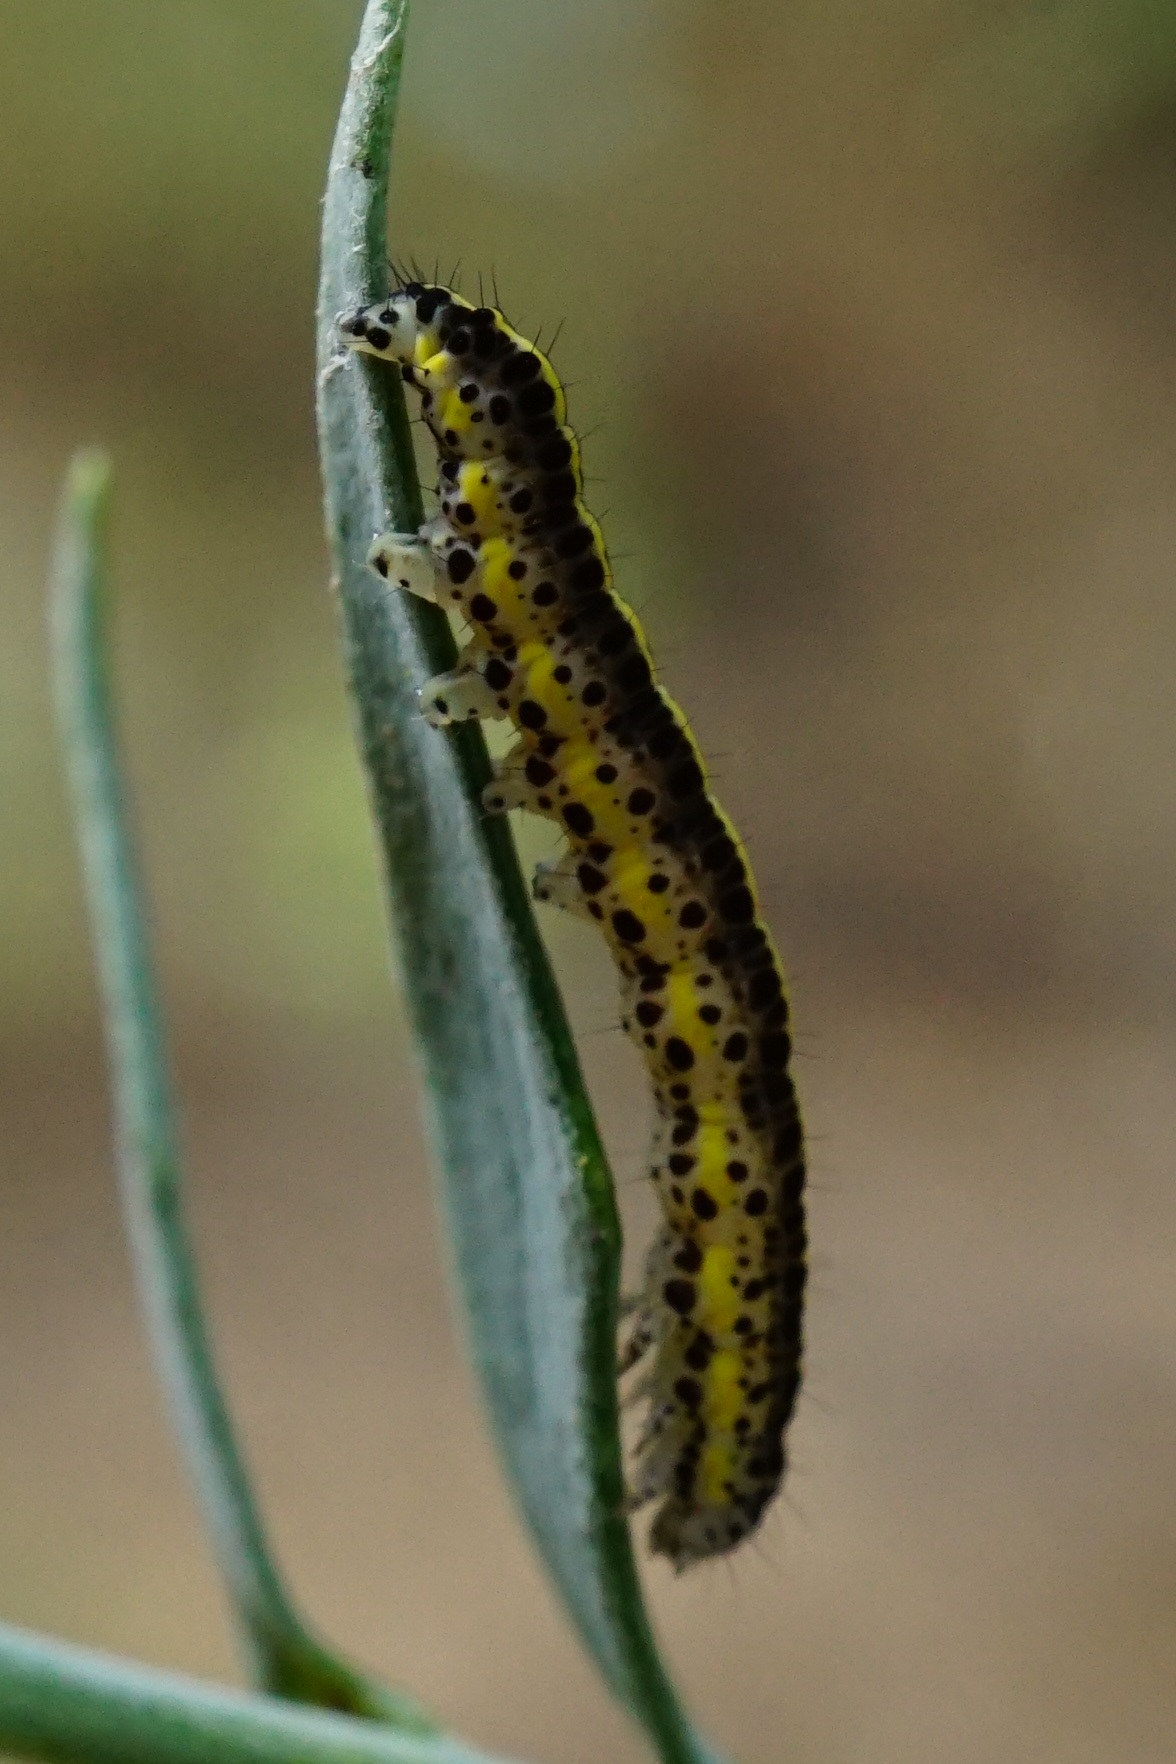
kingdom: Animalia
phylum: Arthropoda
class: Insecta
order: Lepidoptera
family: Noctuidae
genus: Calophasia
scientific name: Calophasia lunula
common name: Toadflax brocade
